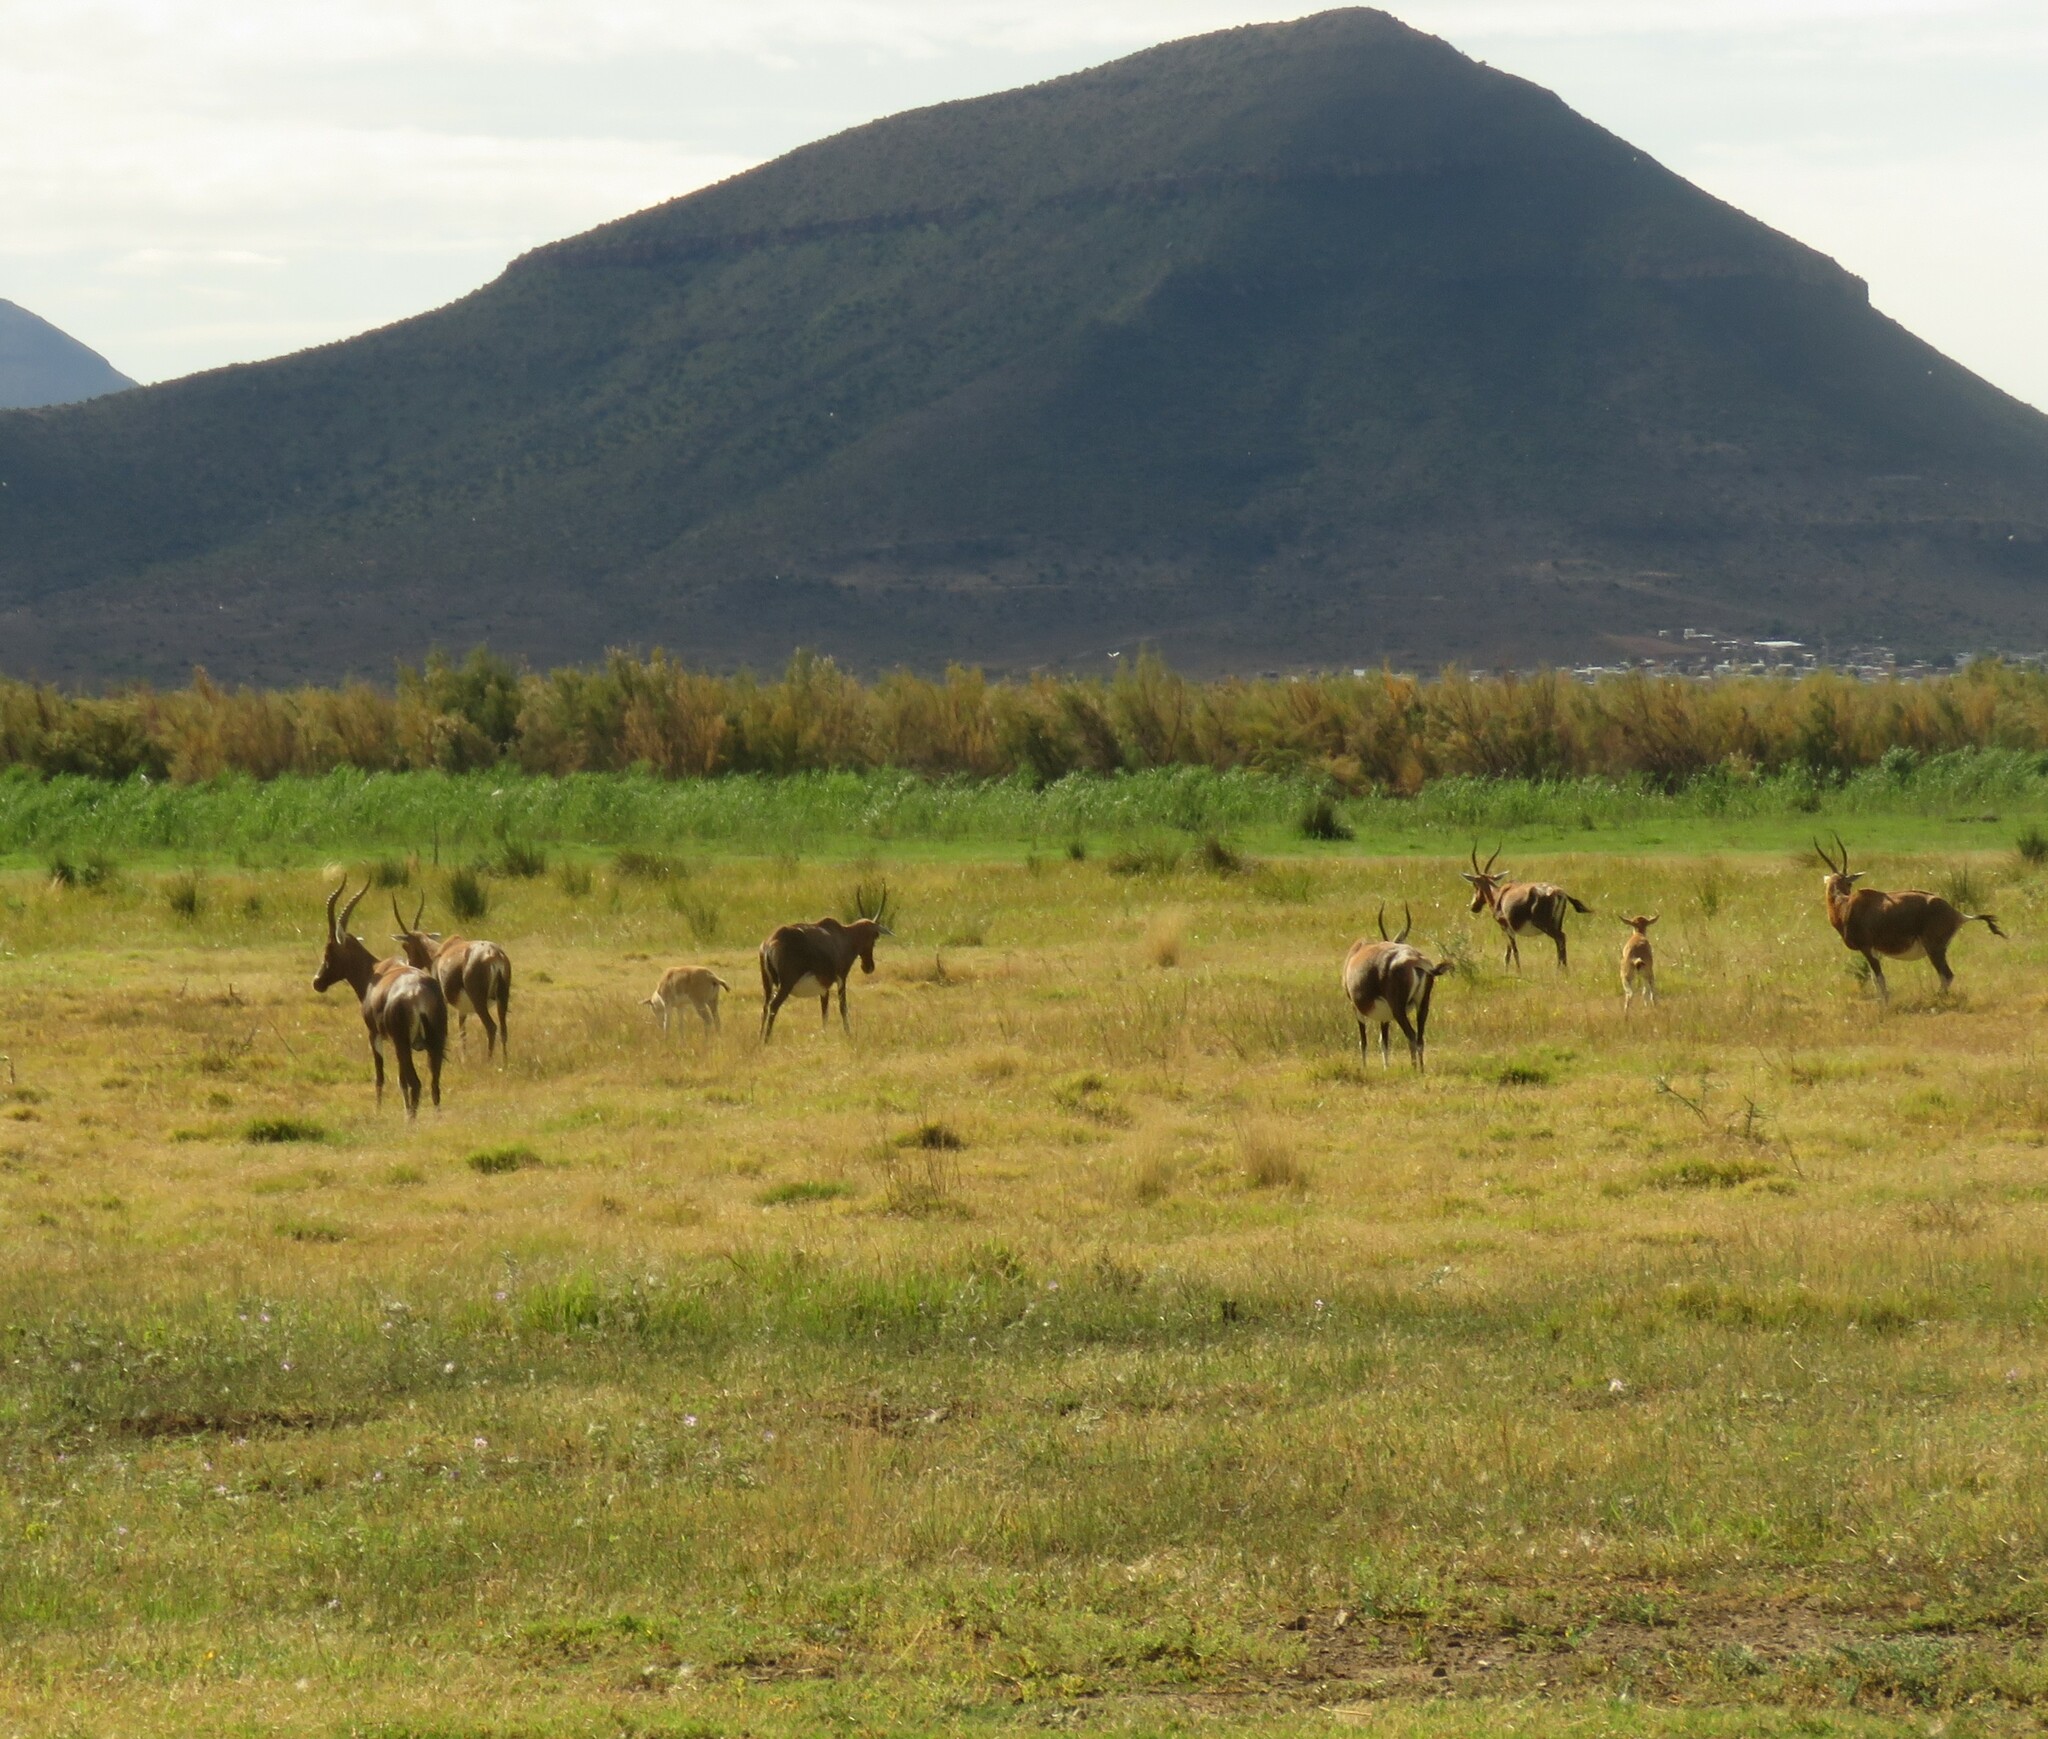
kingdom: Animalia
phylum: Chordata
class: Mammalia
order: Artiodactyla
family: Bovidae
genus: Damaliscus
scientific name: Damaliscus pygargus
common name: Bontebok
